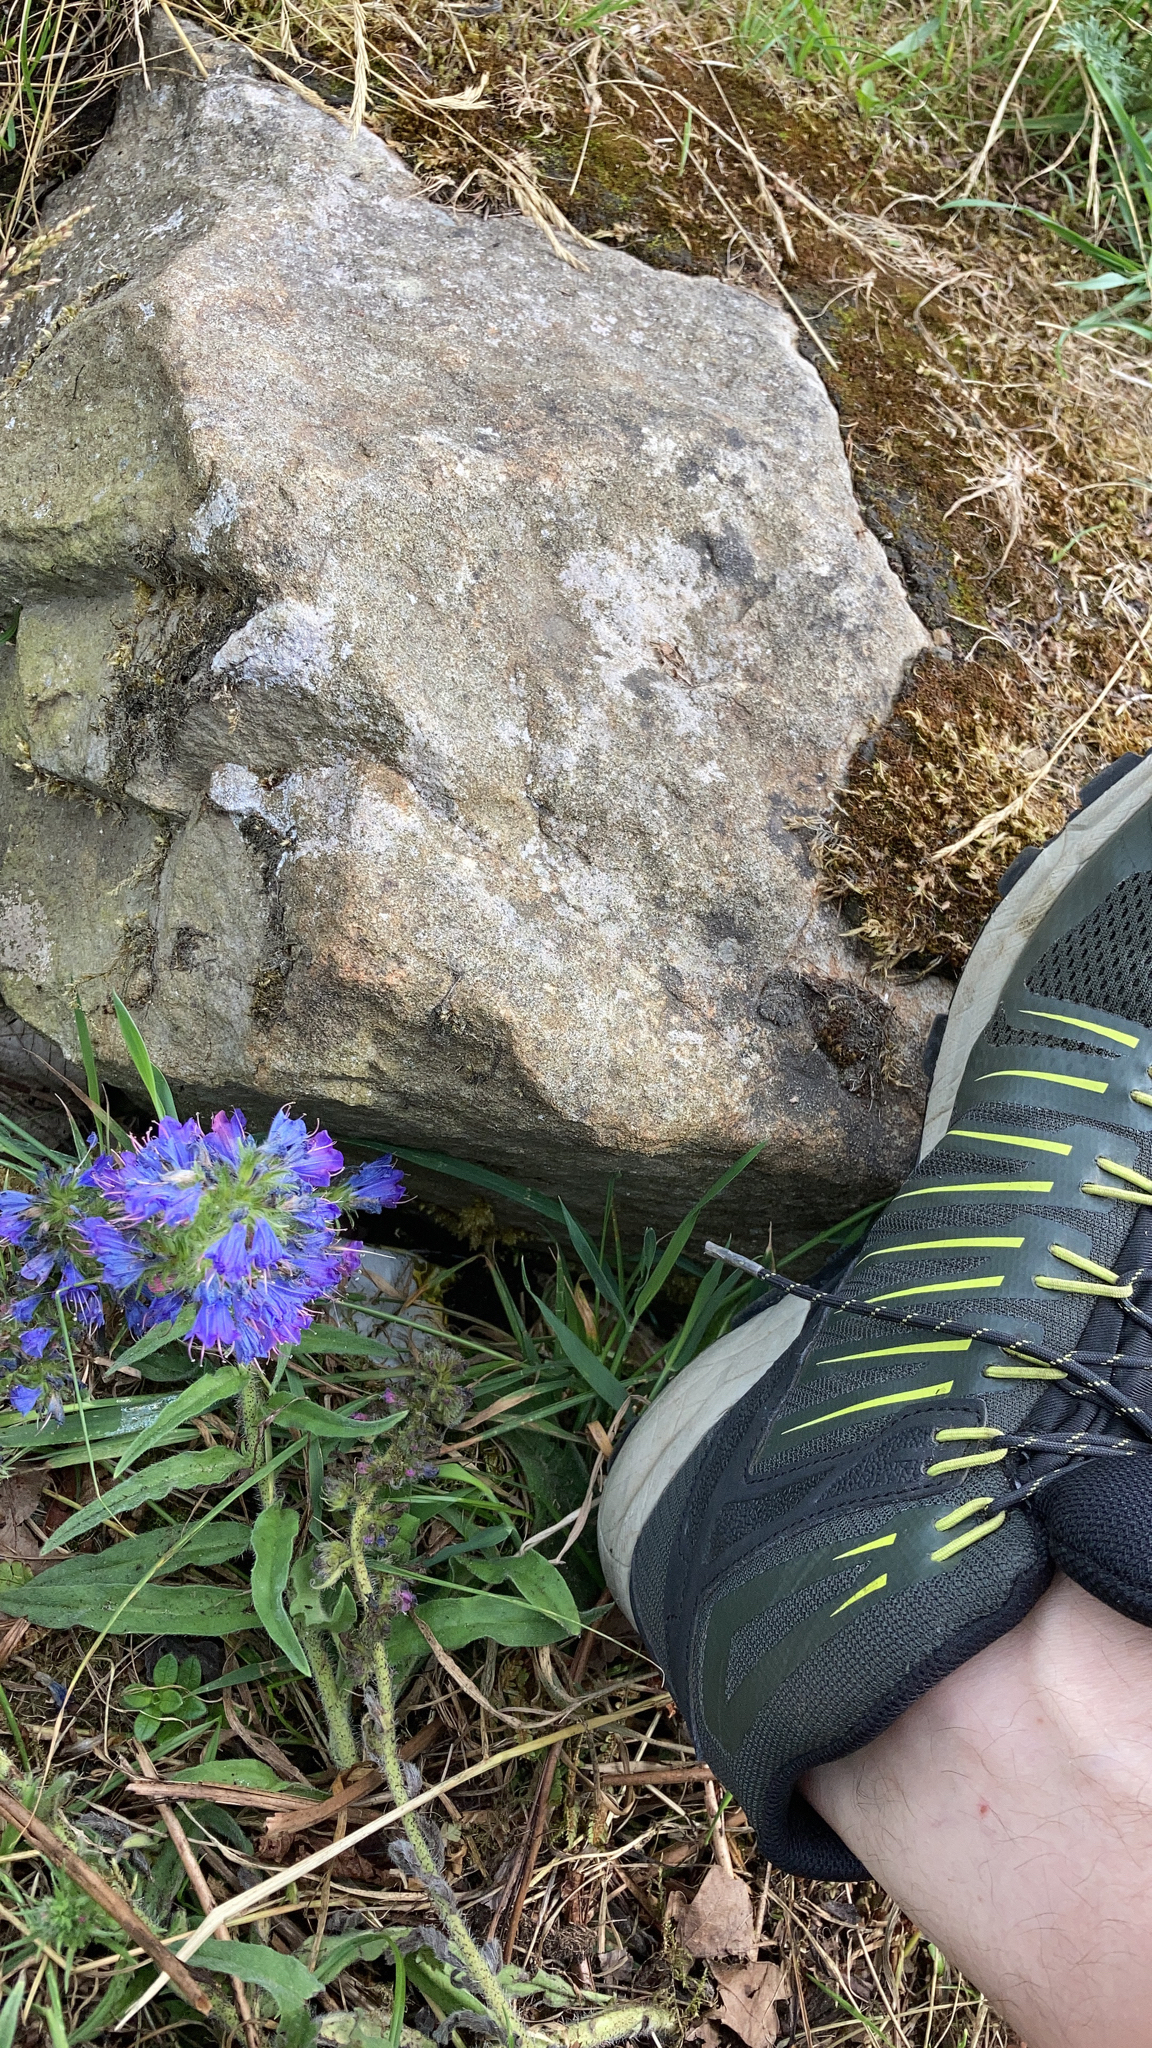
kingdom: Plantae
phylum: Tracheophyta
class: Magnoliopsida
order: Boraginales
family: Boraginaceae
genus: Echium
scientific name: Echium vulgare
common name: Common viper's bugloss
